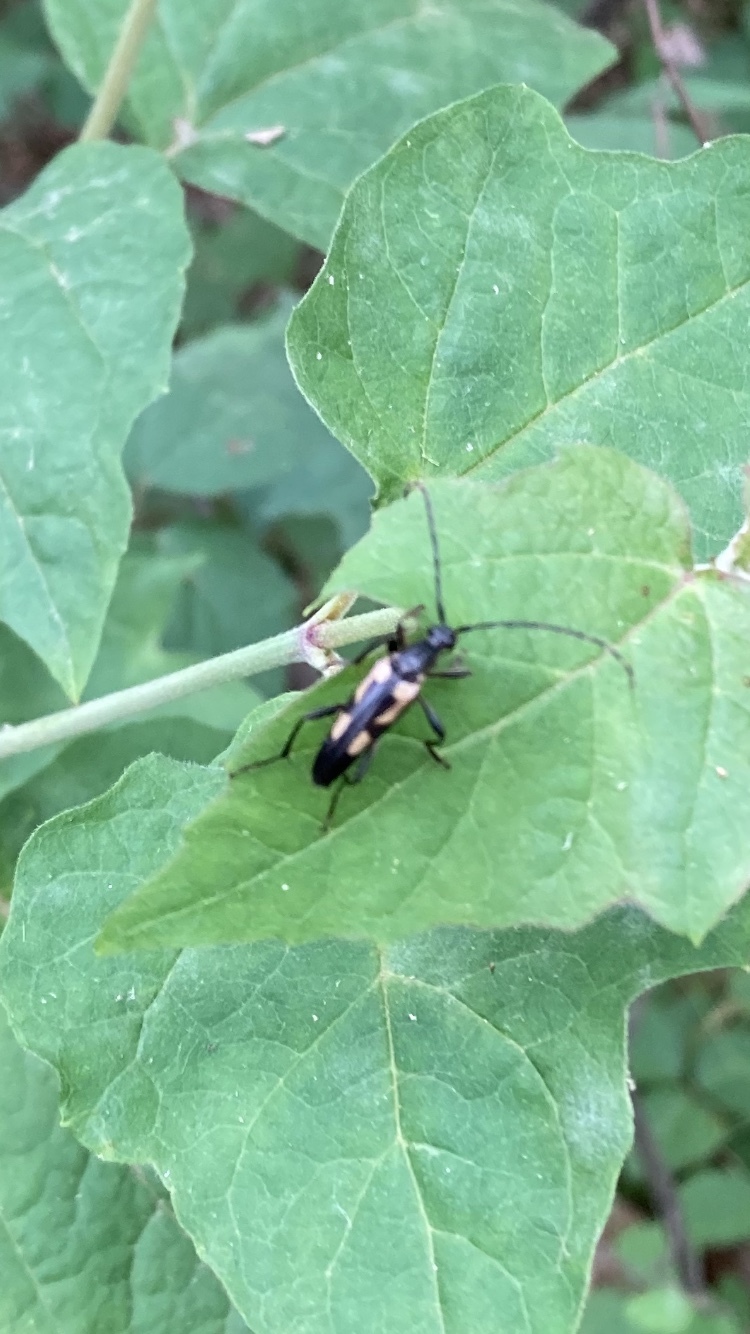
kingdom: Animalia
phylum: Arthropoda
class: Insecta
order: Coleoptera
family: Cerambycidae
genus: Etorofus
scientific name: Etorofus
